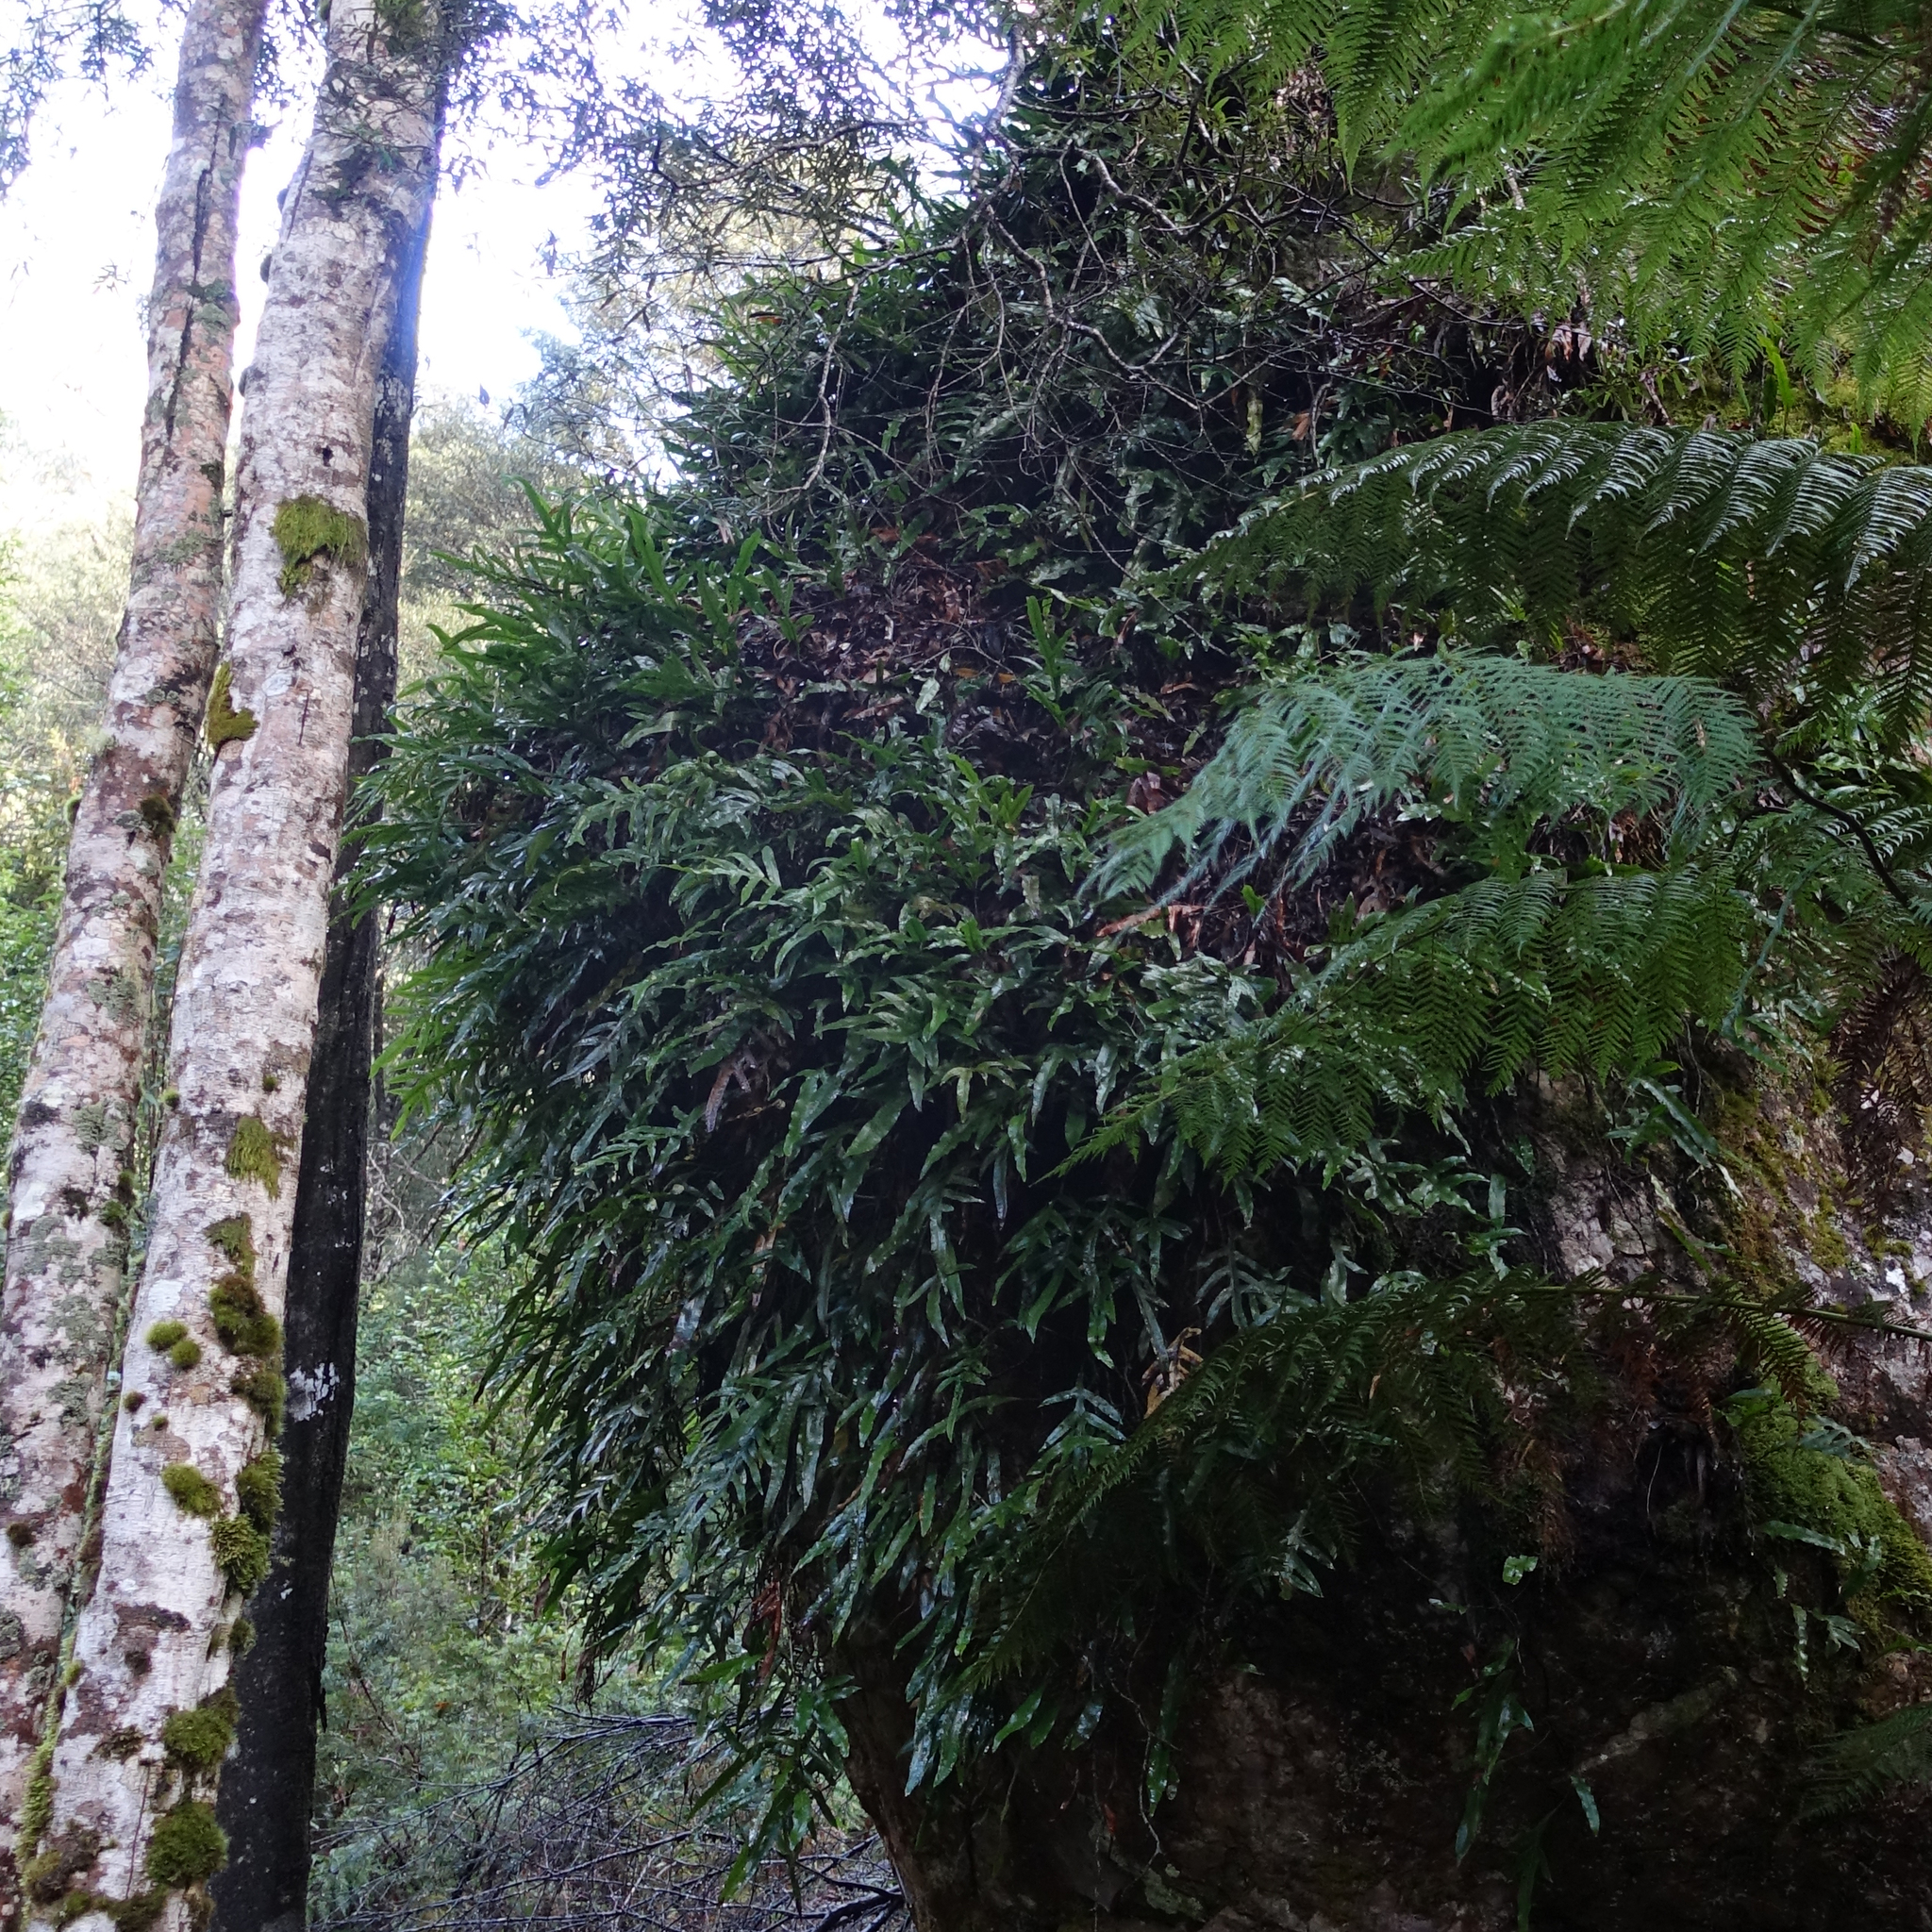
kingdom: Plantae
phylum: Tracheophyta
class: Polypodiopsida
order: Polypodiales
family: Polypodiaceae
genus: Lecanopteris
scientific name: Lecanopteris pustulata
